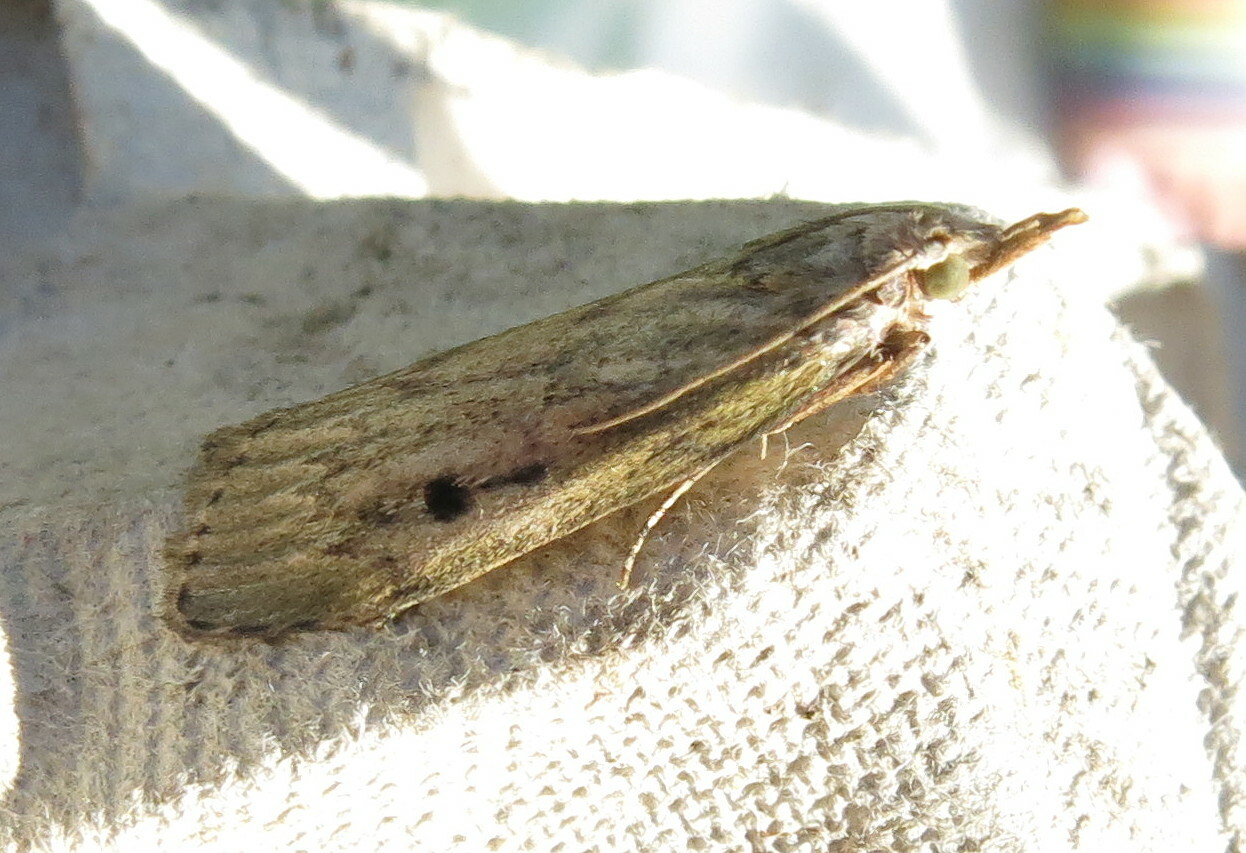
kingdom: Animalia
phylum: Arthropoda
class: Insecta
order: Lepidoptera
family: Pyralidae
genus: Aphomia
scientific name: Aphomia sociella
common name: Bee moth
